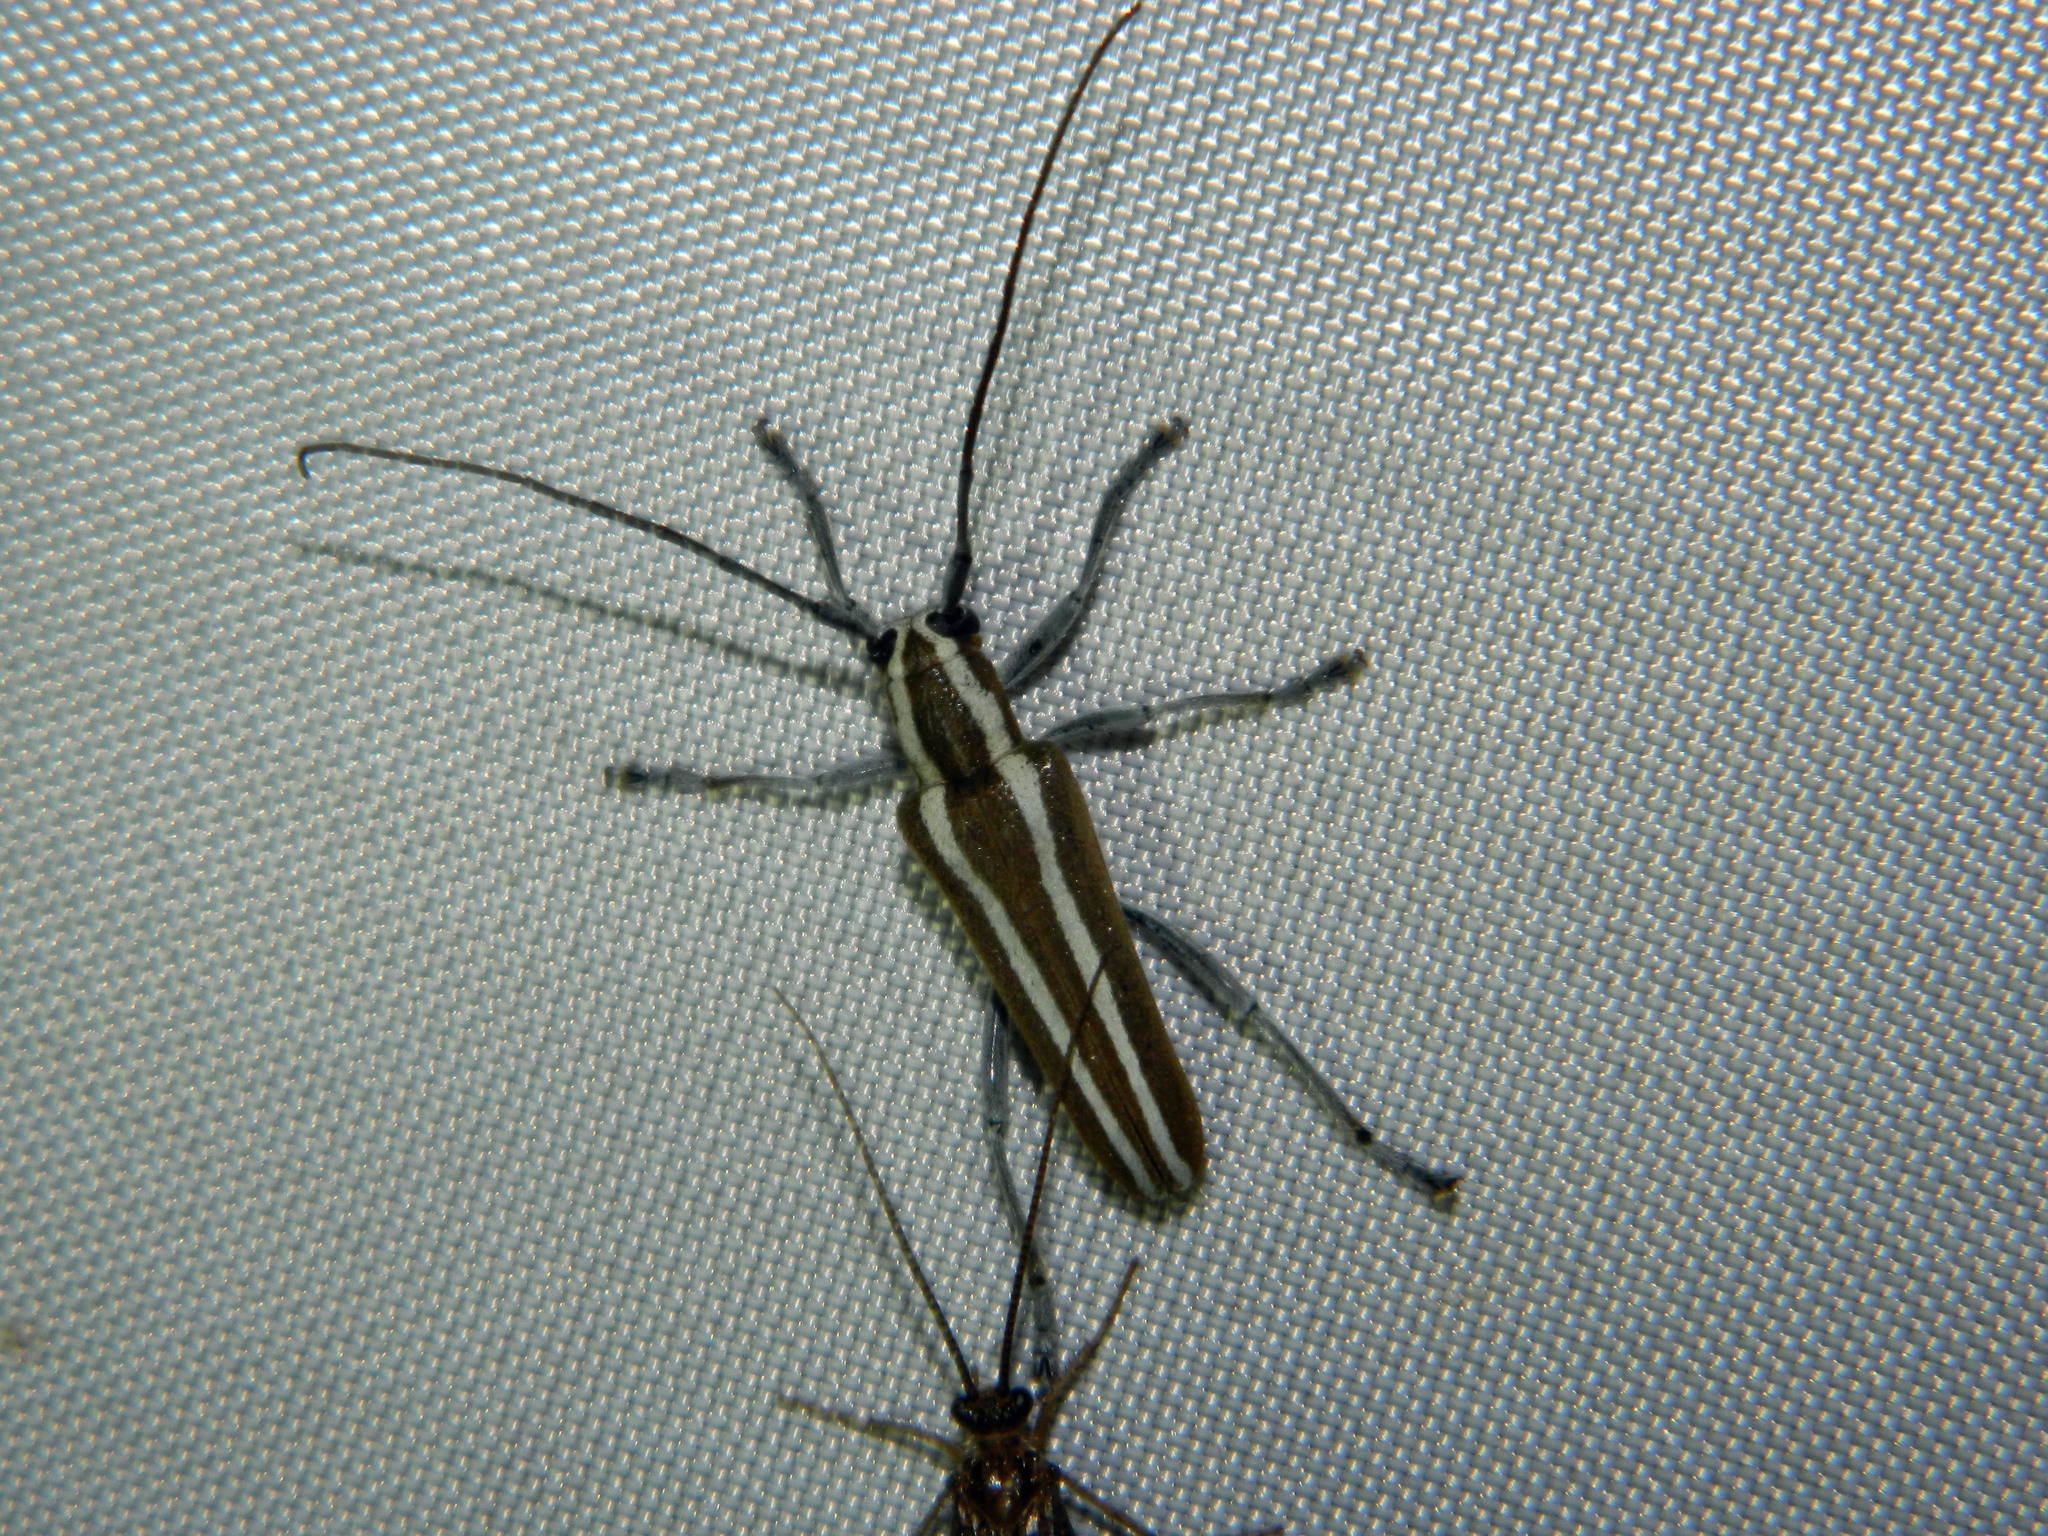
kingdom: Animalia
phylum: Arthropoda
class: Insecta
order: Coleoptera
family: Cerambycidae
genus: Saperda
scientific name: Saperda candida
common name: Round-headed borer
